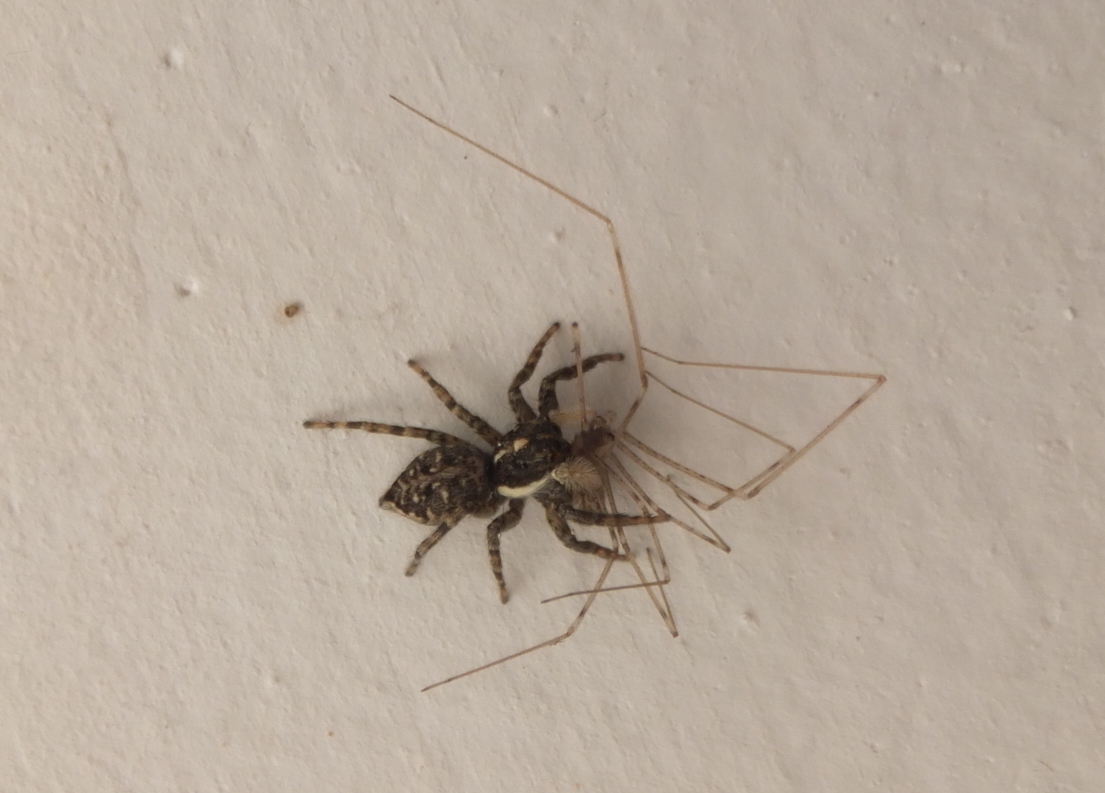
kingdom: Animalia
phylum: Arthropoda
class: Arachnida
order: Araneae
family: Salticidae
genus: Menemerus
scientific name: Menemerus semilimbatus
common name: Jumping spider
